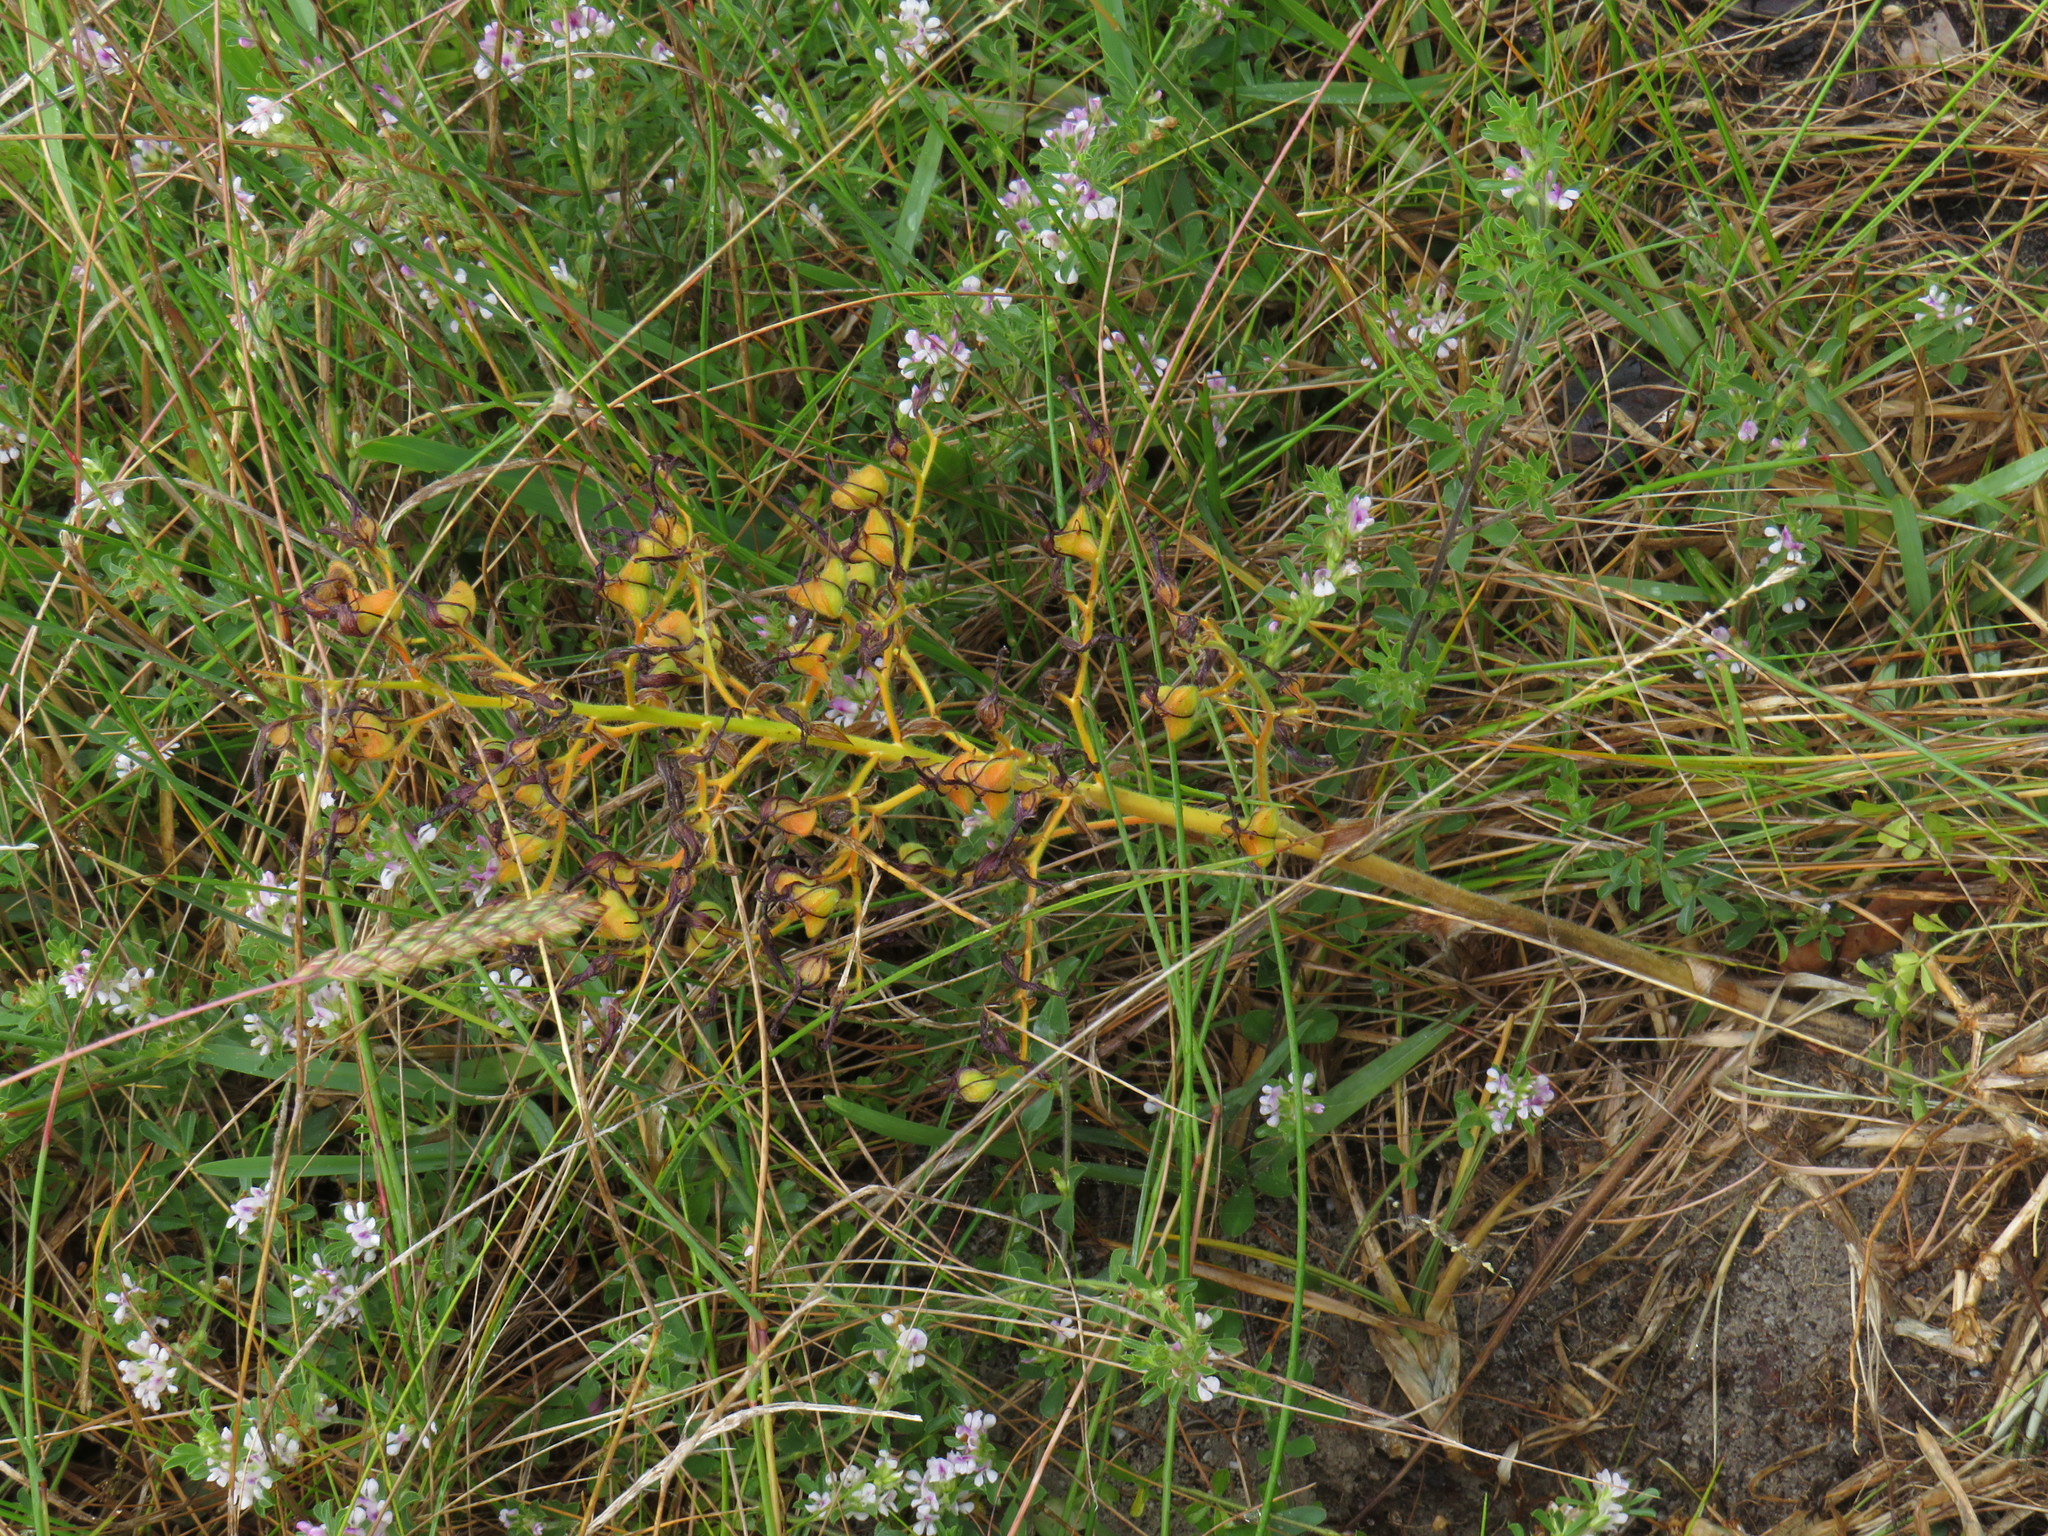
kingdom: Plantae
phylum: Tracheophyta
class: Liliopsida
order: Commelinales
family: Haemodoraceae
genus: Wachendorfia
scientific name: Wachendorfia paniculata
